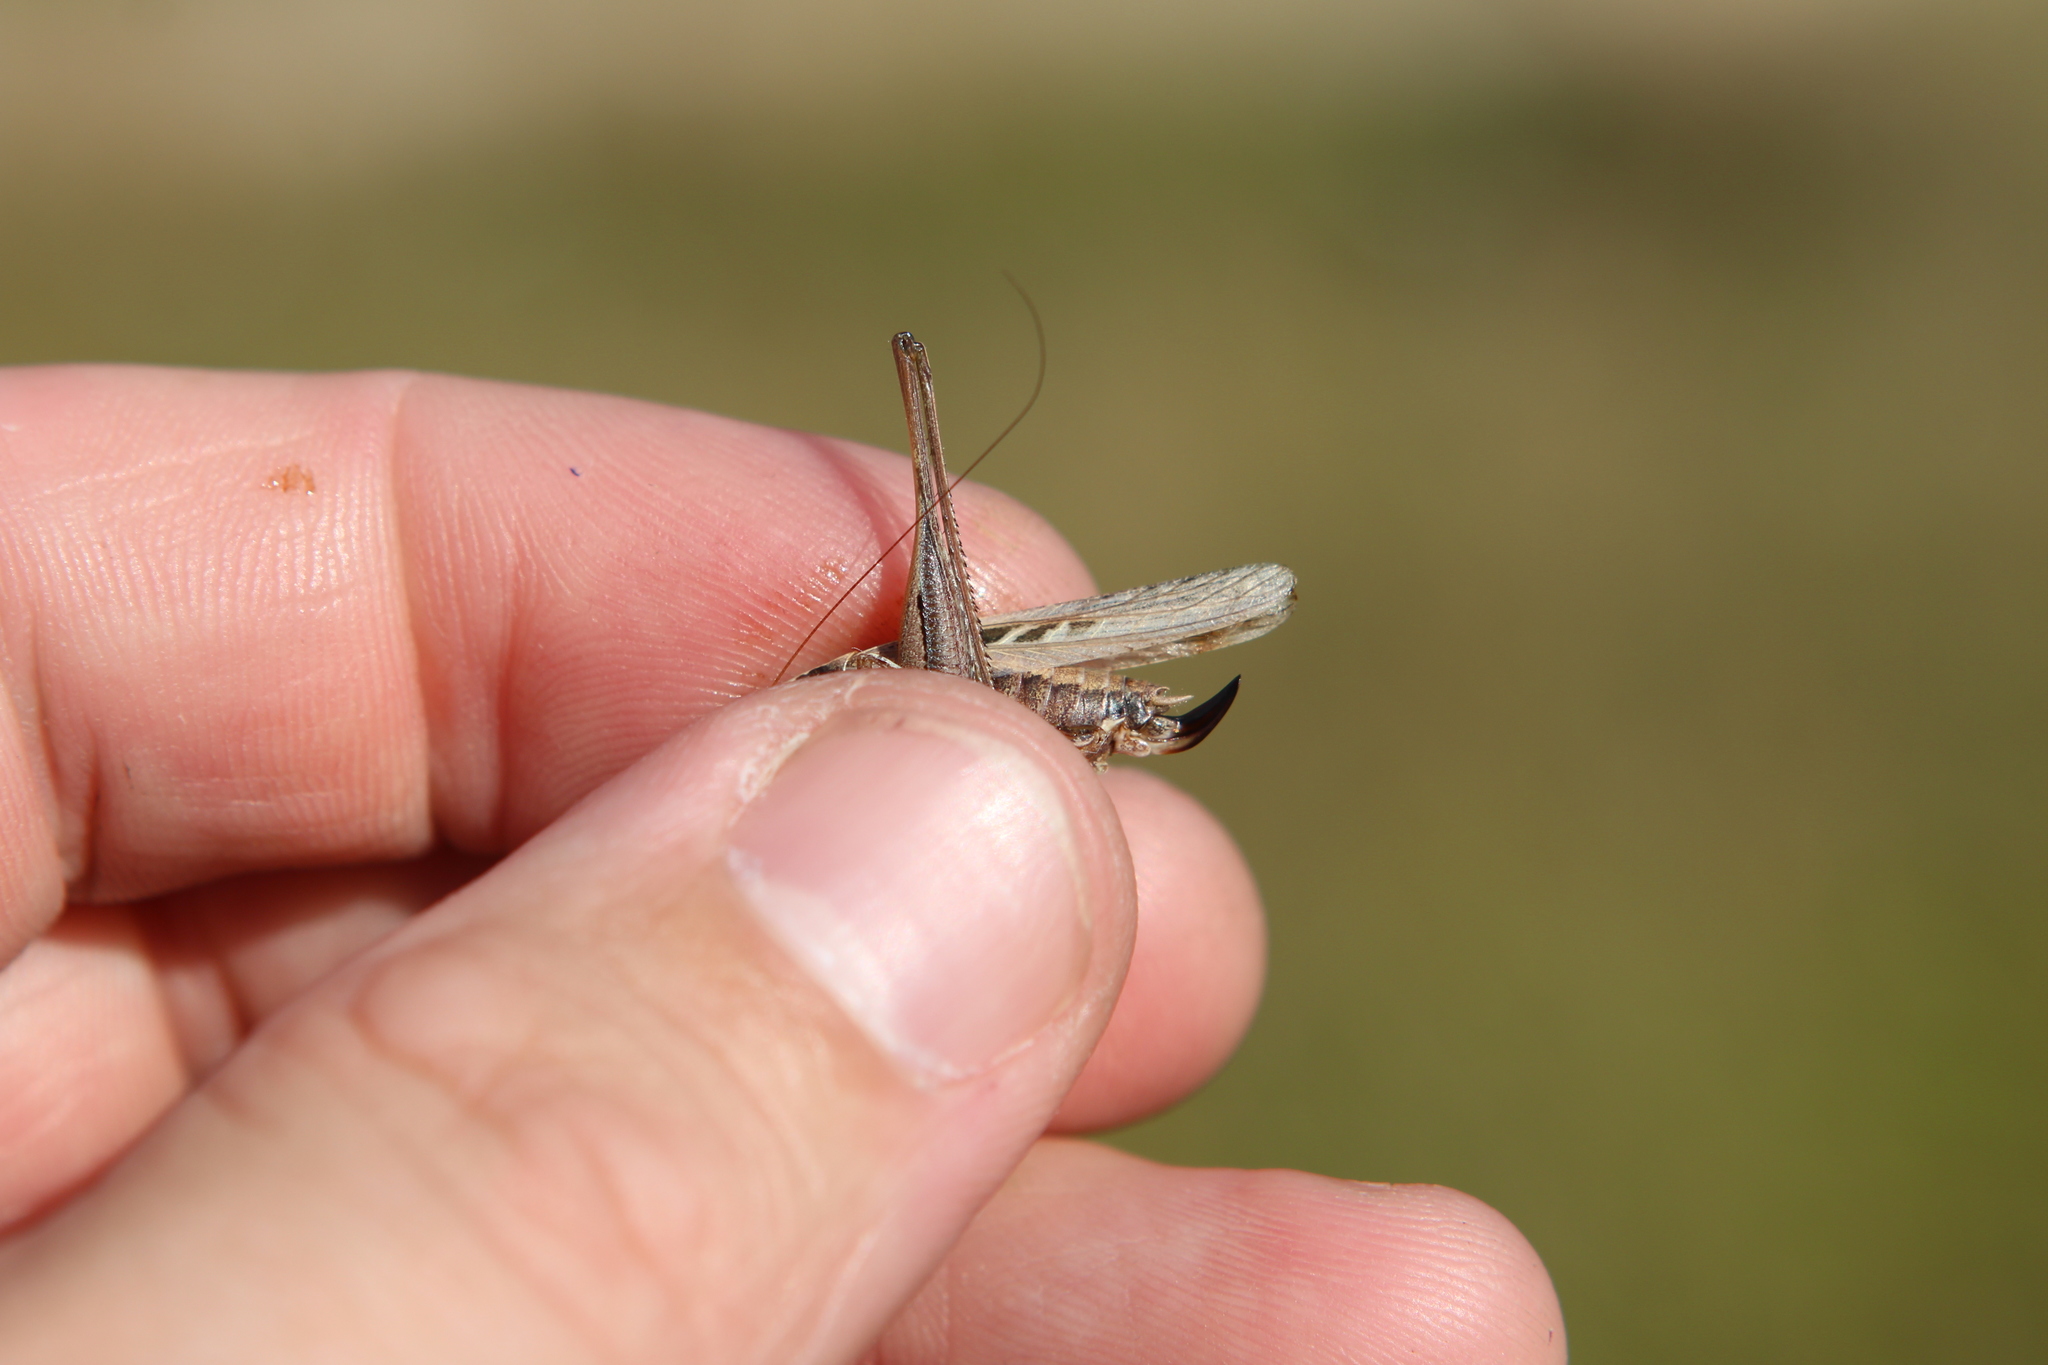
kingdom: Animalia
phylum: Arthropoda
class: Insecta
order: Orthoptera
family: Tettigoniidae
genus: Tessellana
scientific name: Tessellana tessellata
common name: Grasshopper
